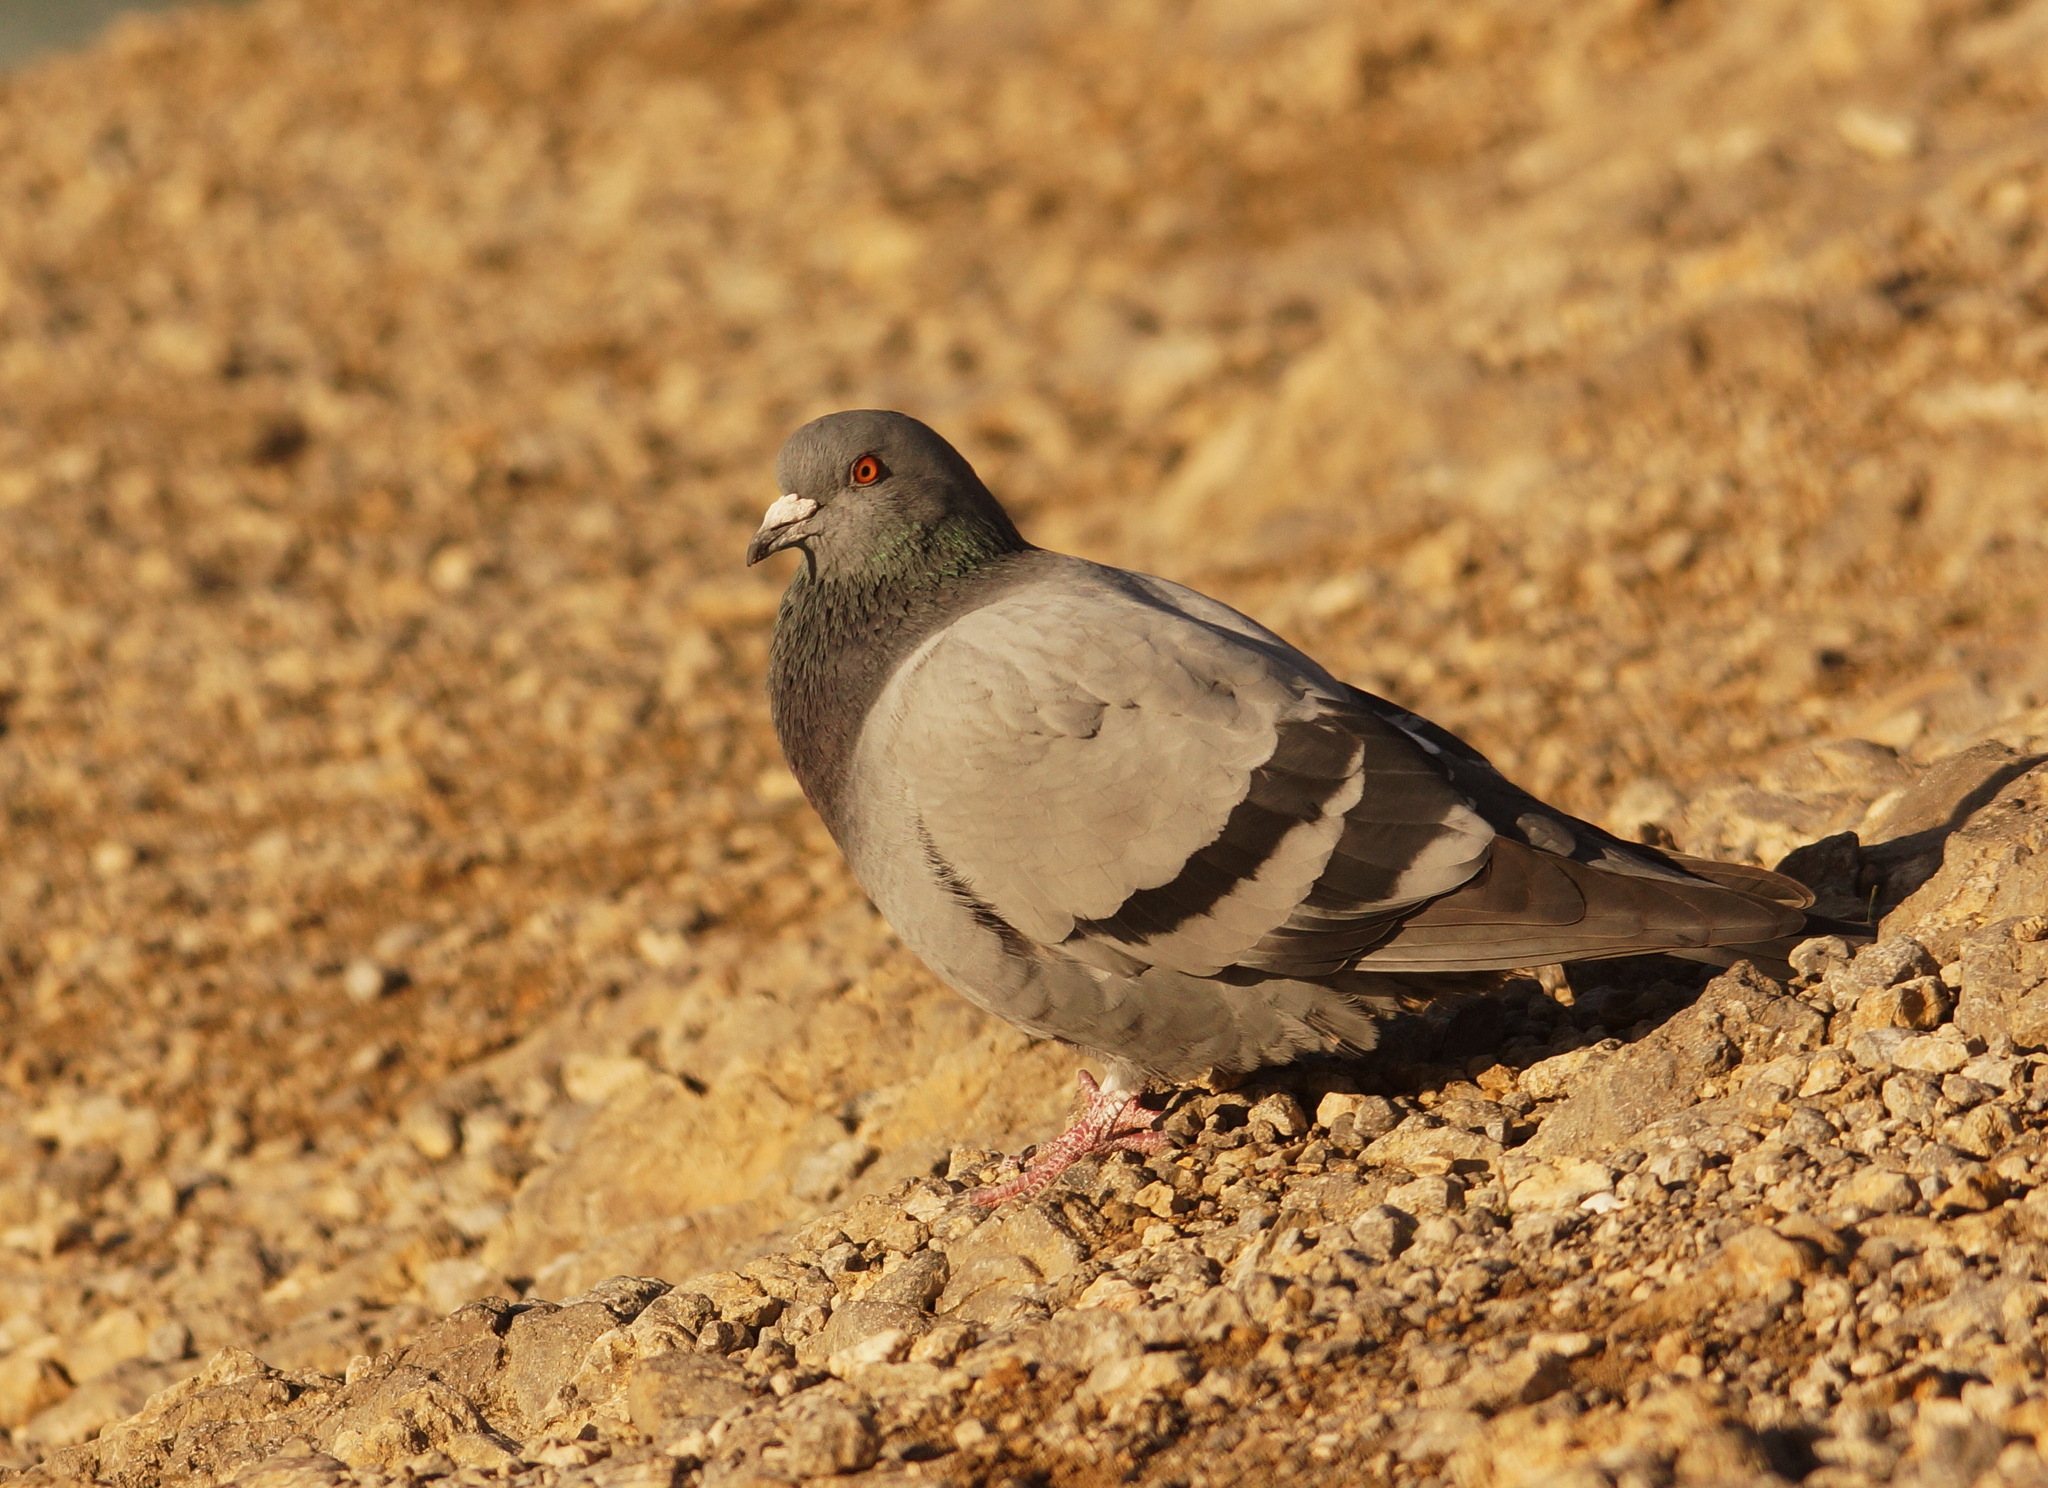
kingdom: Animalia
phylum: Chordata
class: Aves
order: Columbiformes
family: Columbidae
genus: Columba
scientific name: Columba livia
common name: Rock pigeon
